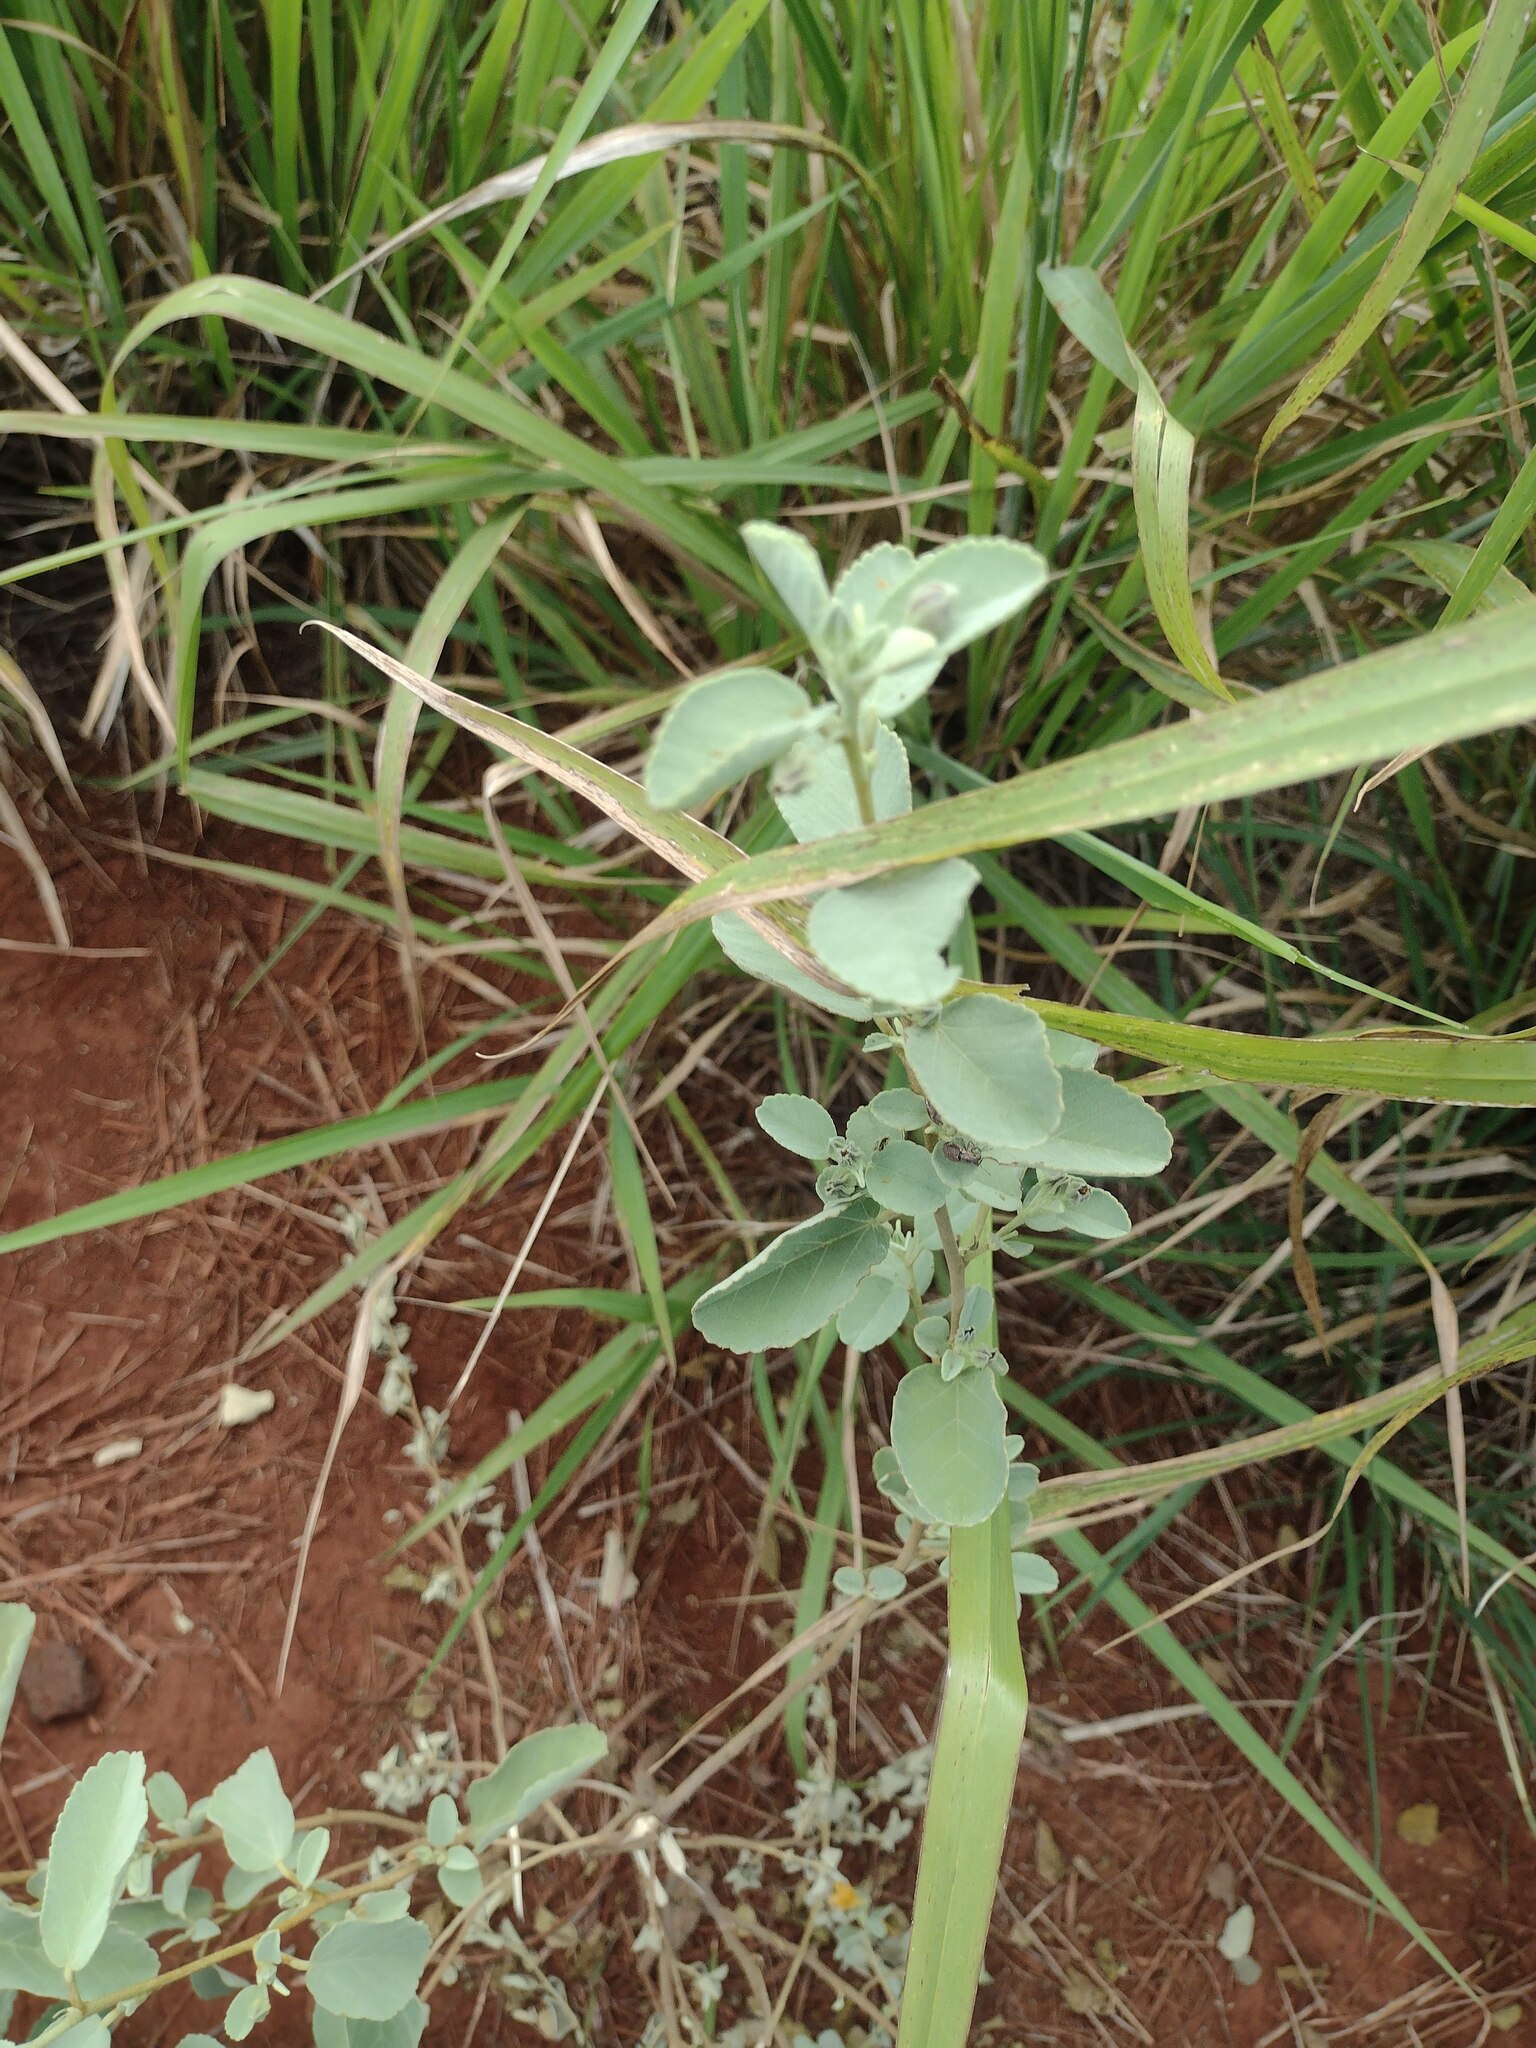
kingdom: Plantae
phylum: Tracheophyta
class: Magnoliopsida
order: Malvales
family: Malvaceae
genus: Sida
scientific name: Sida fallax
